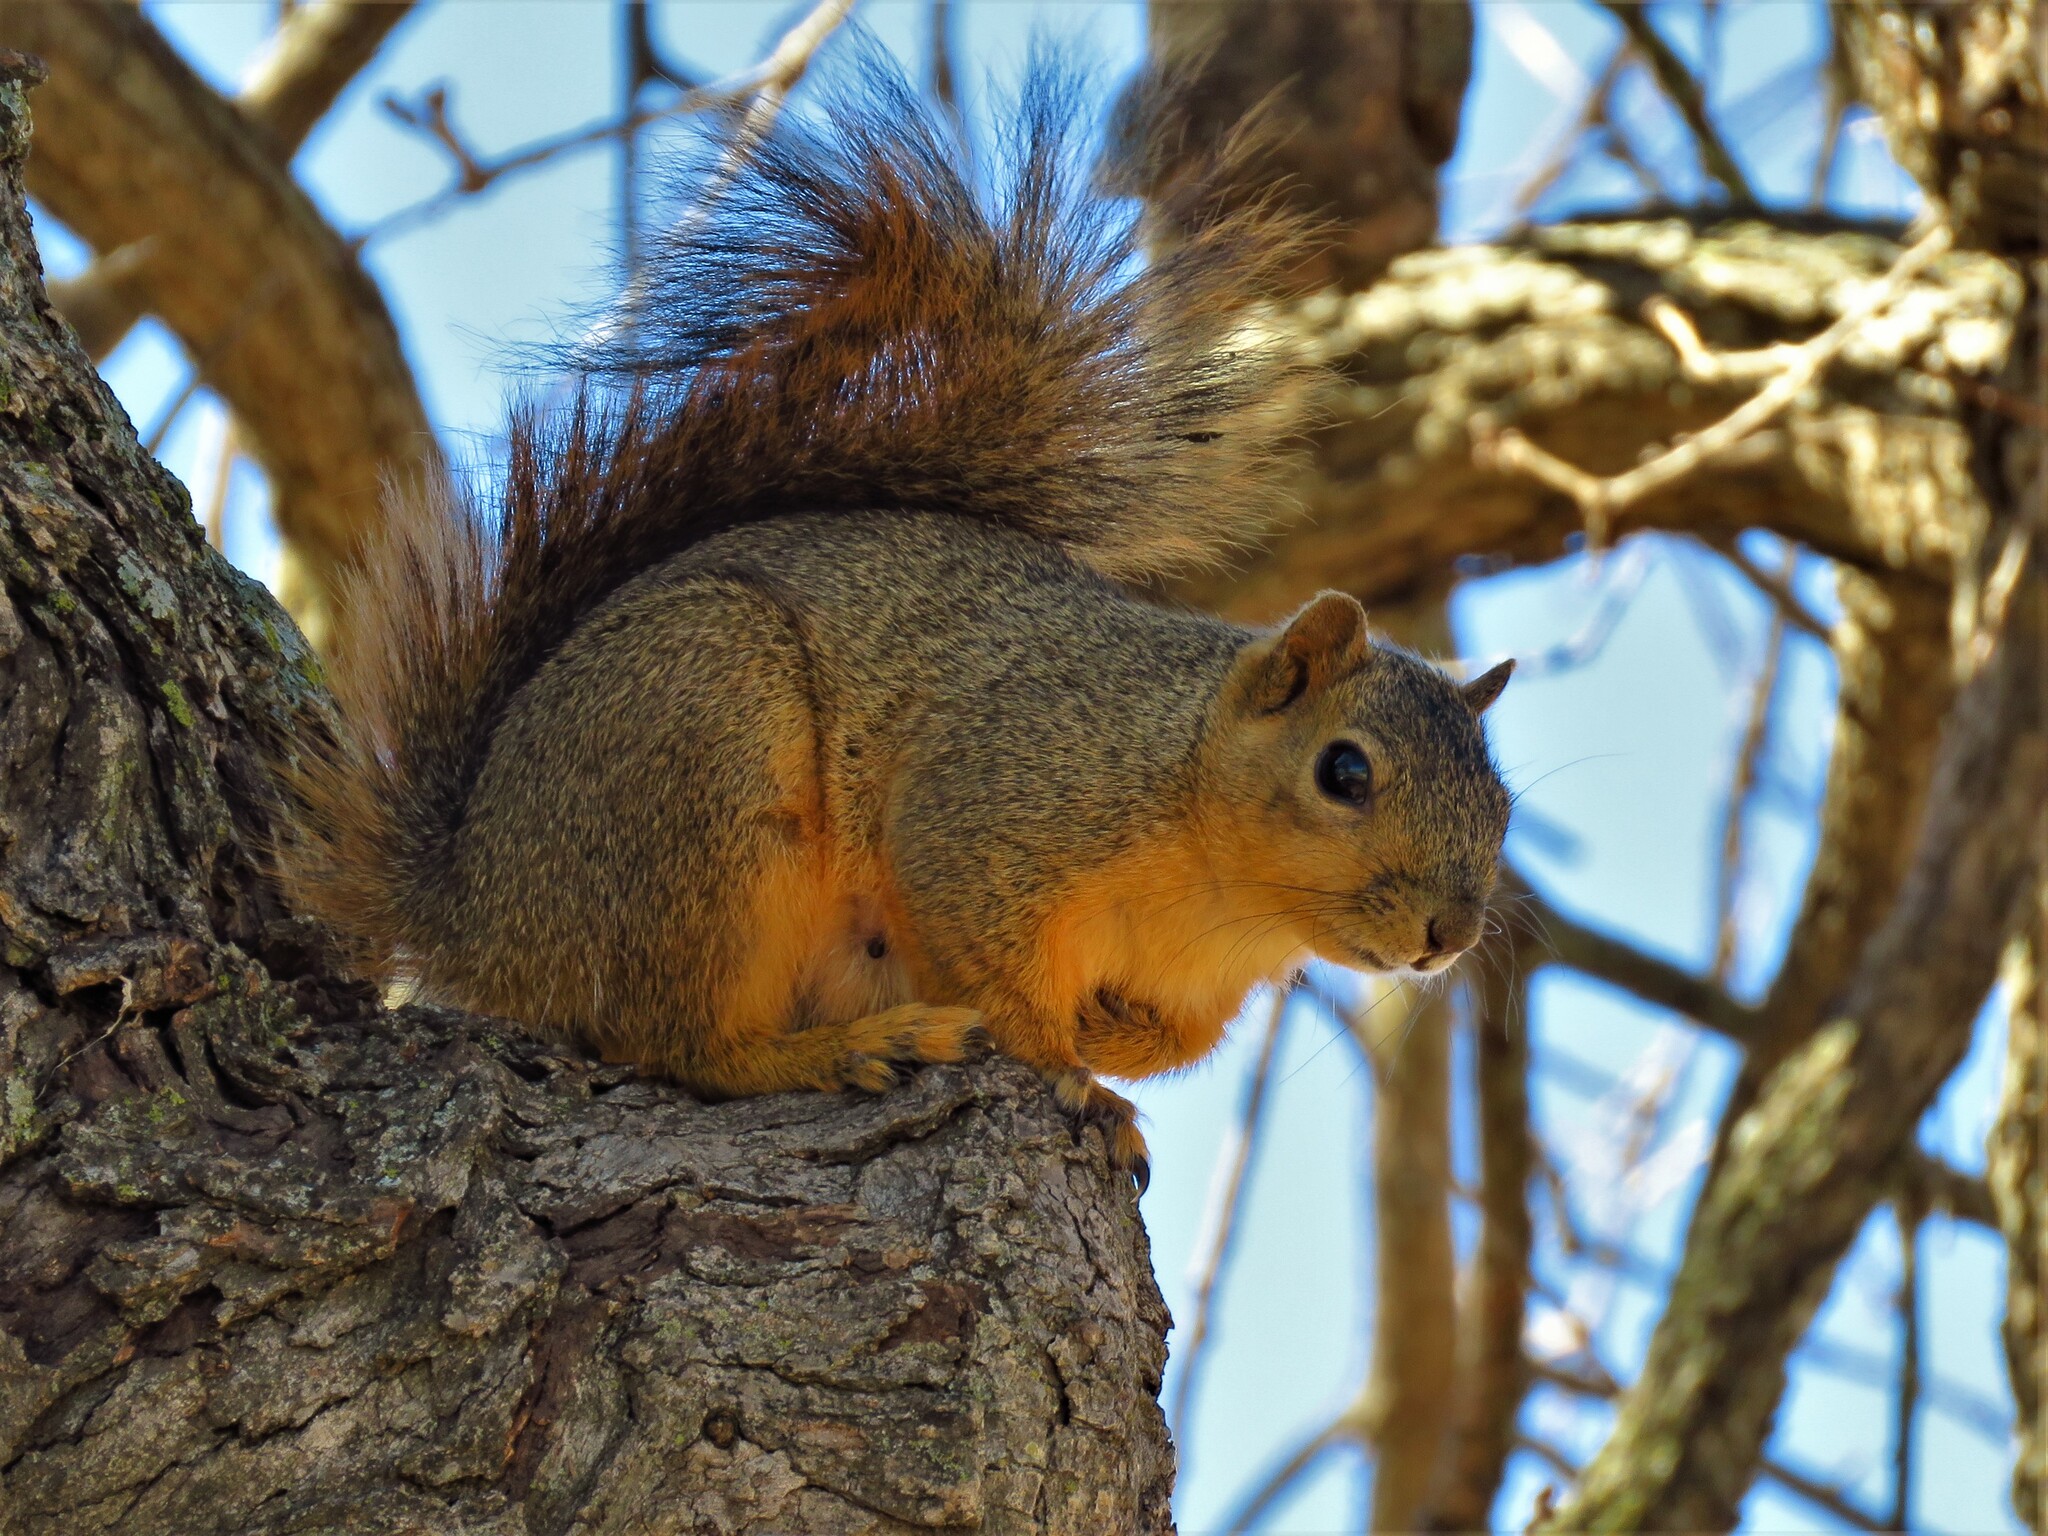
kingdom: Animalia
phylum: Chordata
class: Mammalia
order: Rodentia
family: Sciuridae
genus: Sciurus
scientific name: Sciurus niger
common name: Fox squirrel
